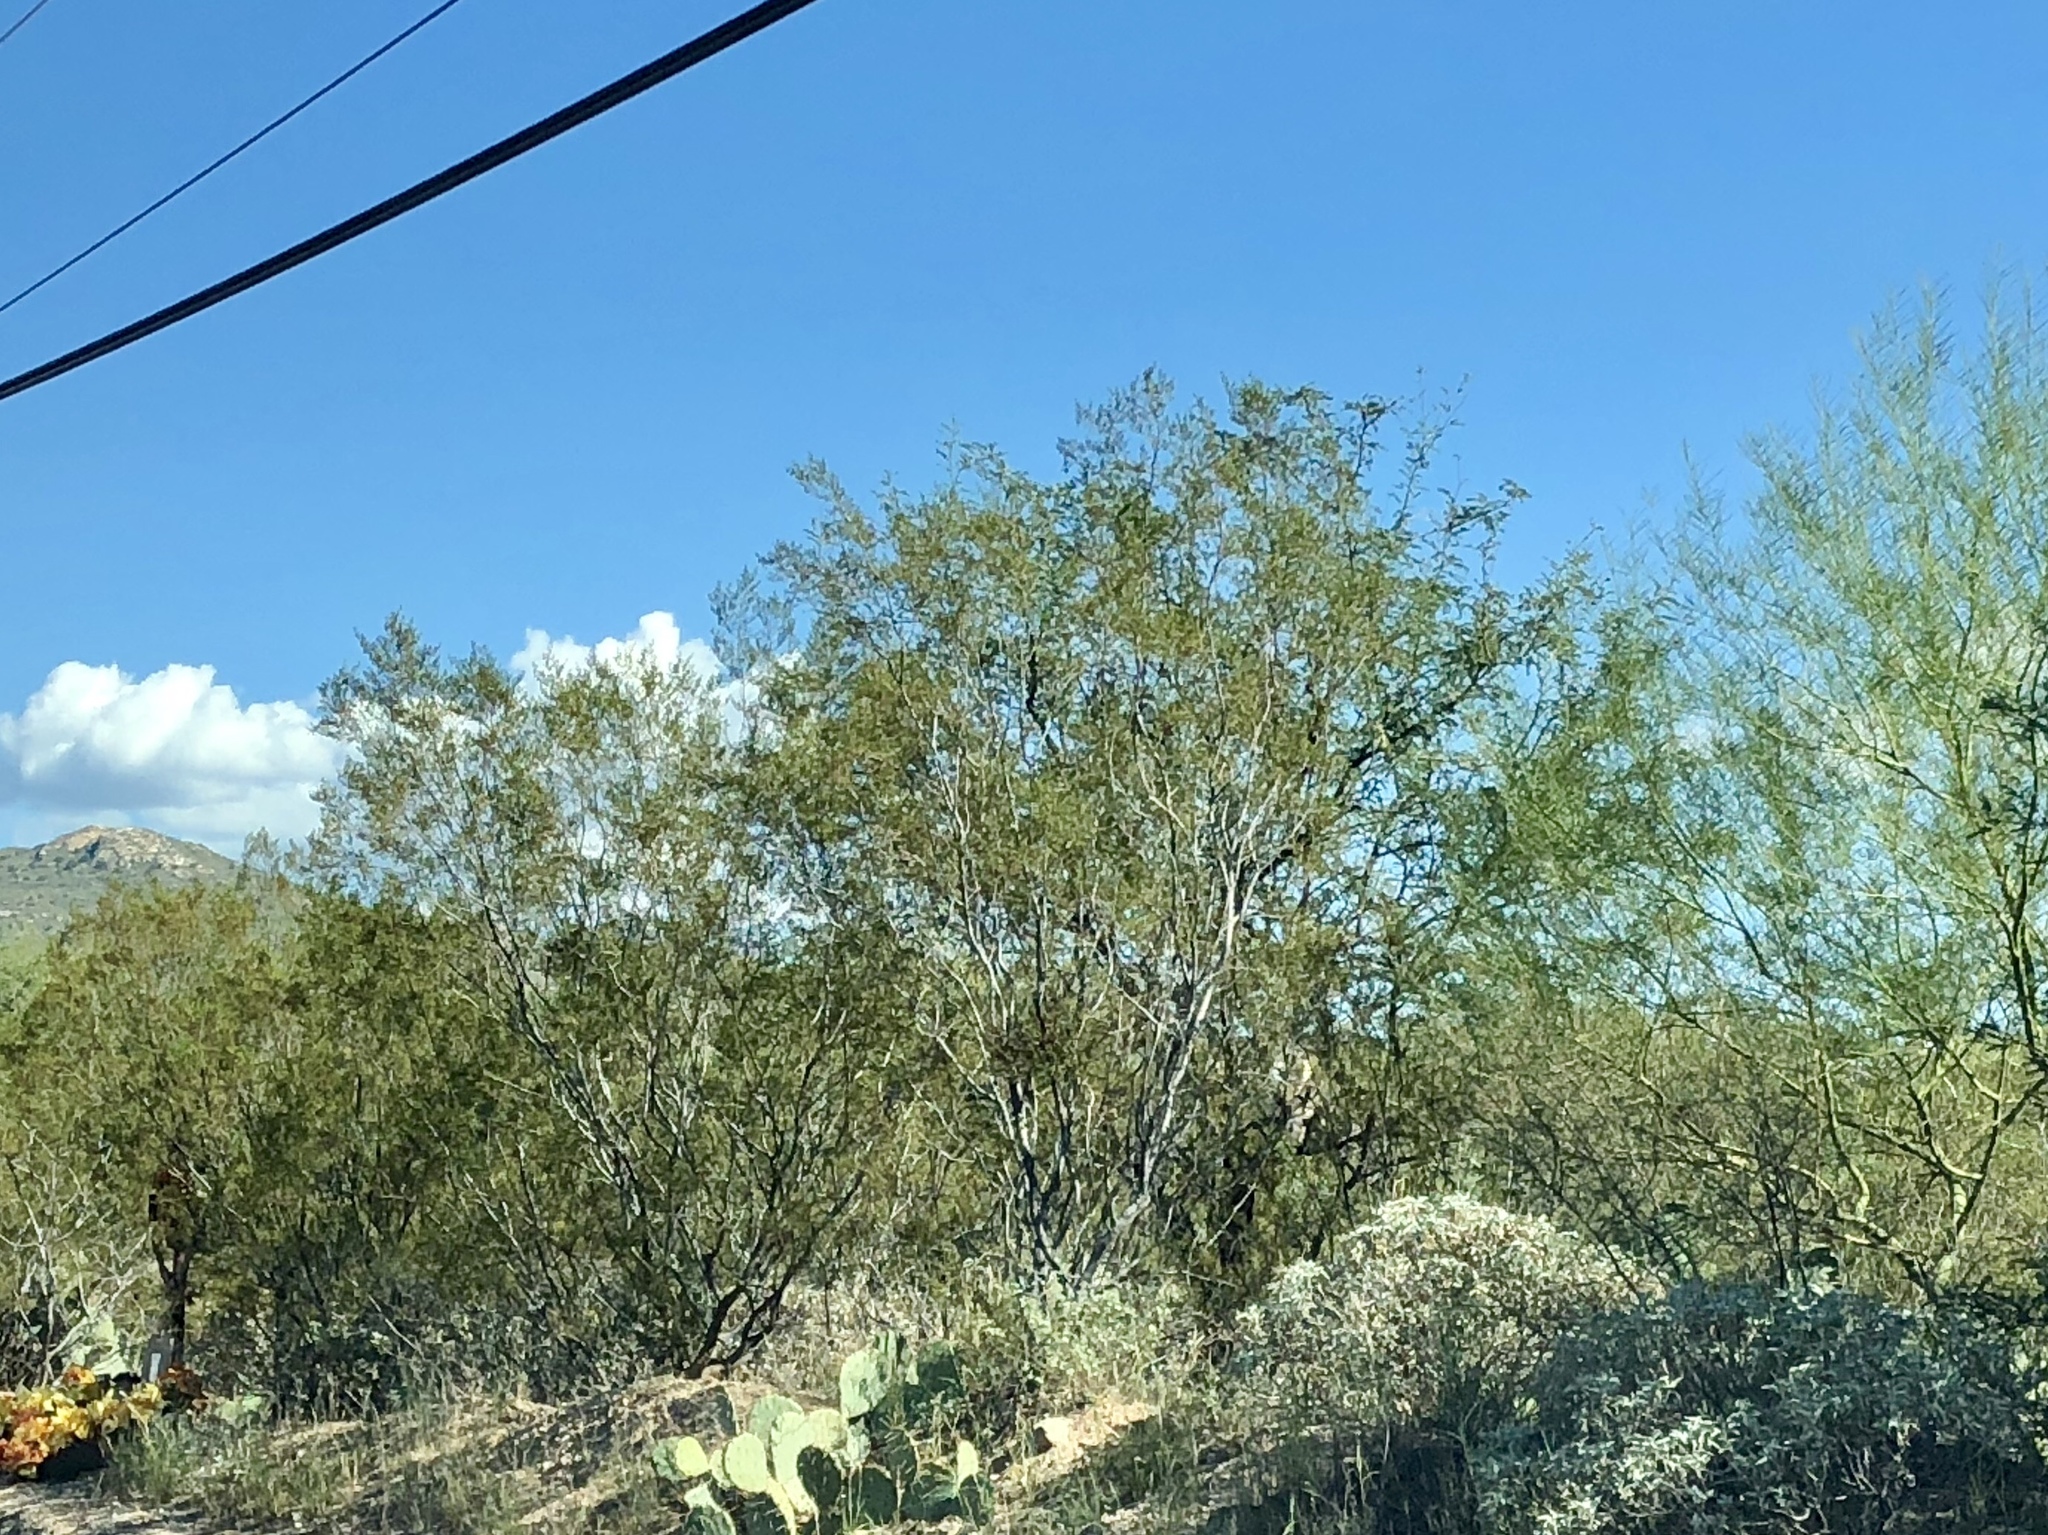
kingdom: Plantae
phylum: Tracheophyta
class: Magnoliopsida
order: Zygophyllales
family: Zygophyllaceae
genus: Larrea
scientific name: Larrea tridentata
